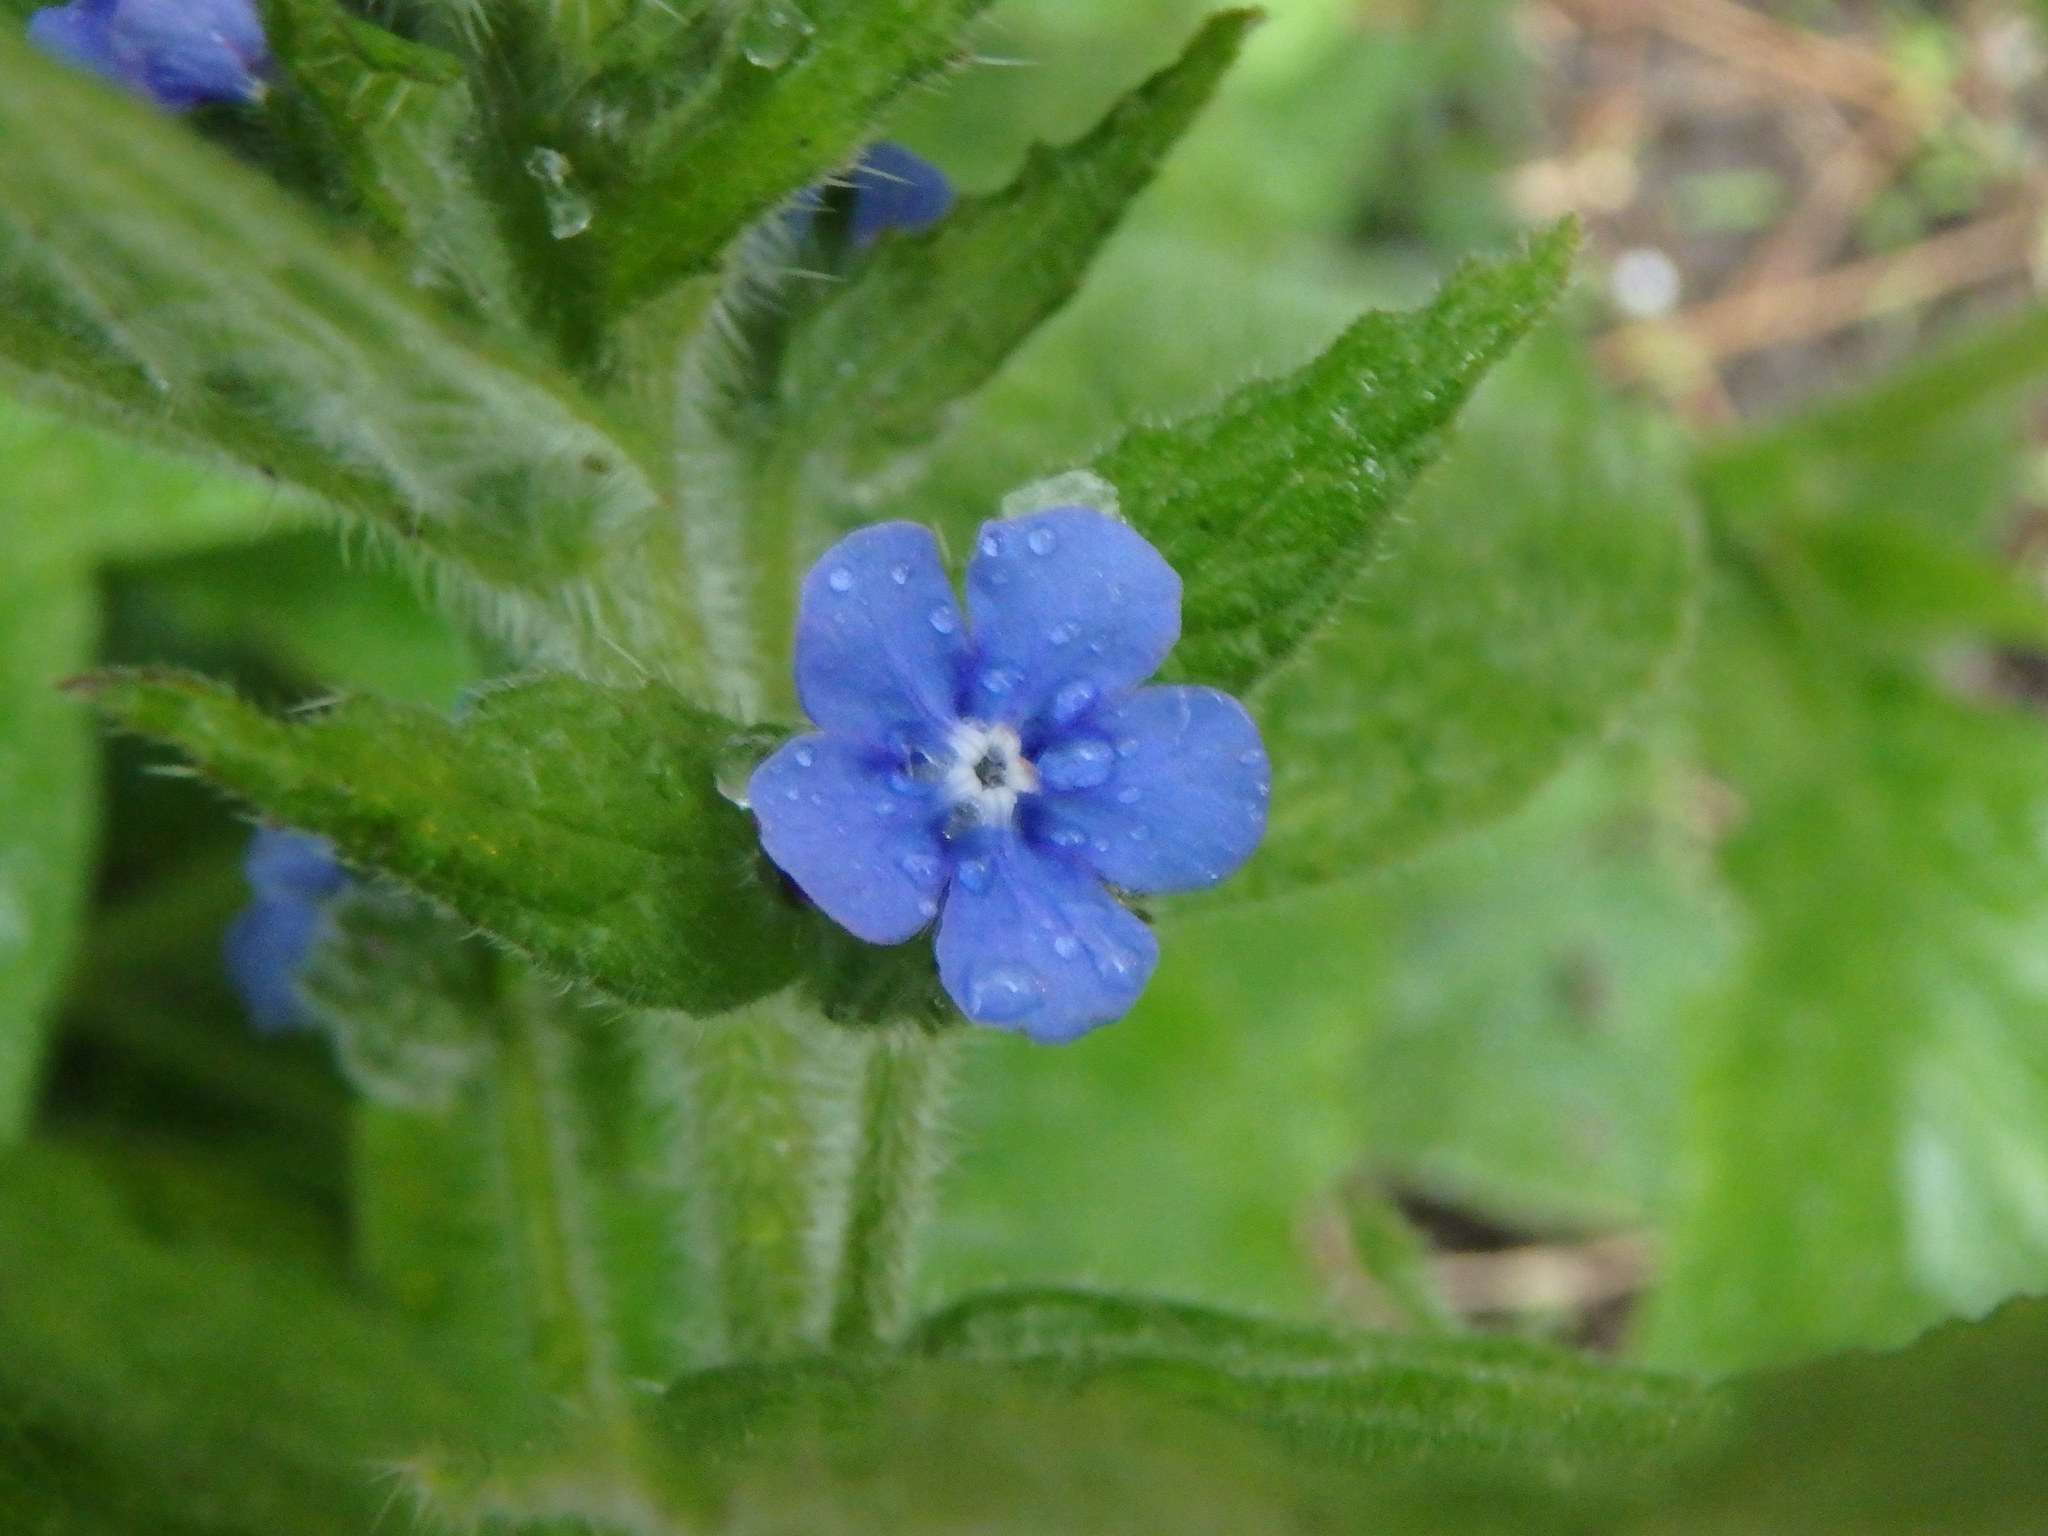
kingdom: Plantae
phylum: Tracheophyta
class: Magnoliopsida
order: Boraginales
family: Boraginaceae
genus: Pentaglottis
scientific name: Pentaglottis sempervirens
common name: Green alkanet
